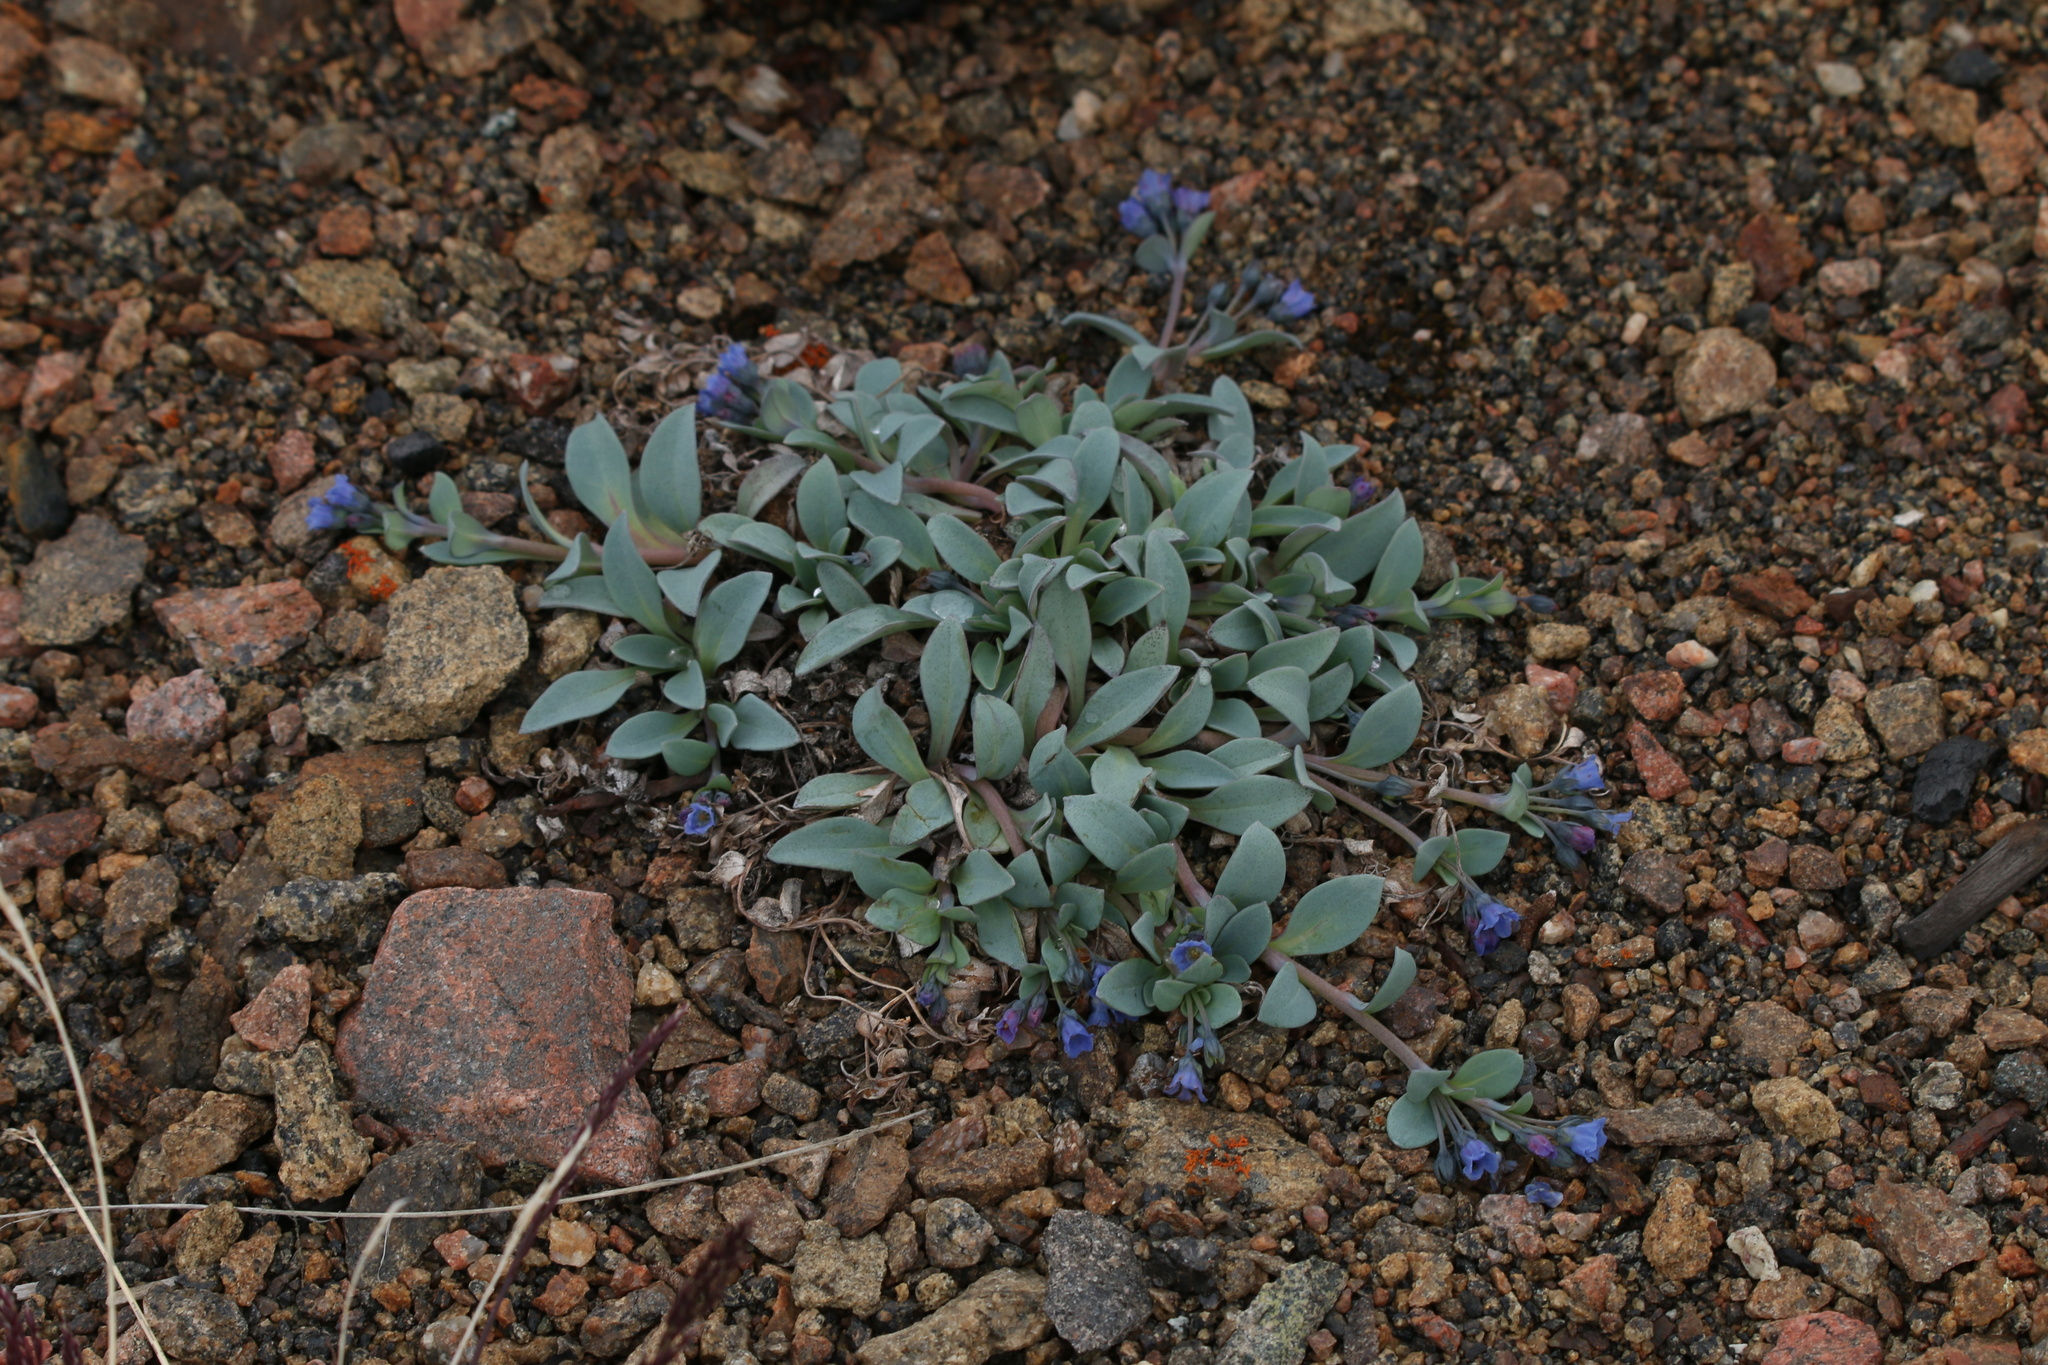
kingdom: Plantae
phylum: Tracheophyta
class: Magnoliopsida
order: Boraginales
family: Boraginaceae
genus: Mertensia
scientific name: Mertensia maritima
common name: Oysterplant
